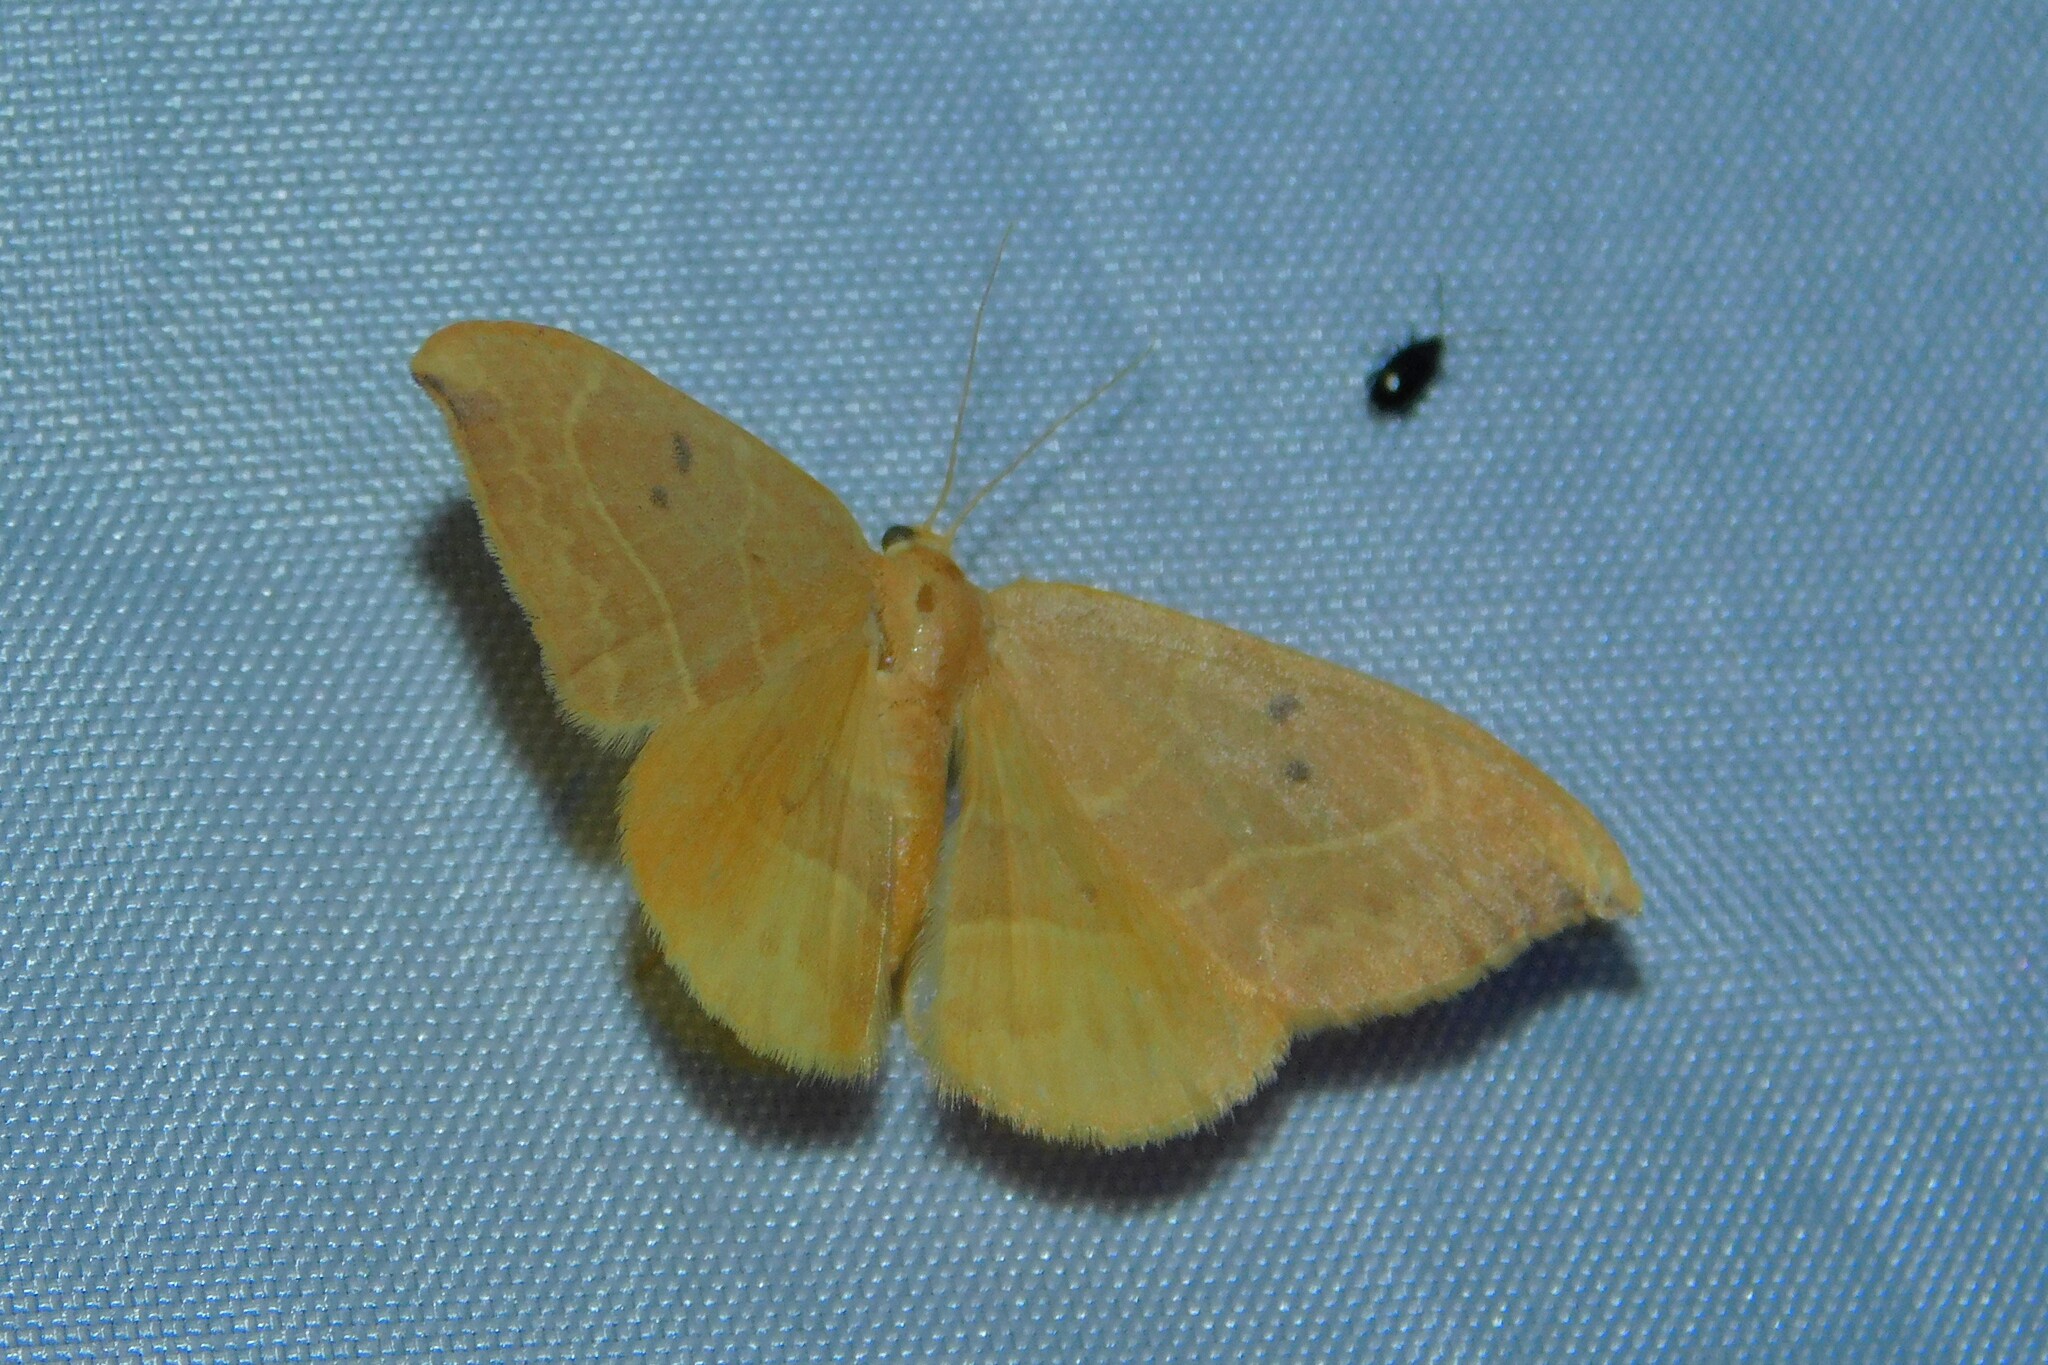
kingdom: Animalia
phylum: Arthropoda
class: Insecta
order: Lepidoptera
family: Drepanidae
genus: Watsonalla
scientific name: Watsonalla binaria
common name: Oak hook-tip
